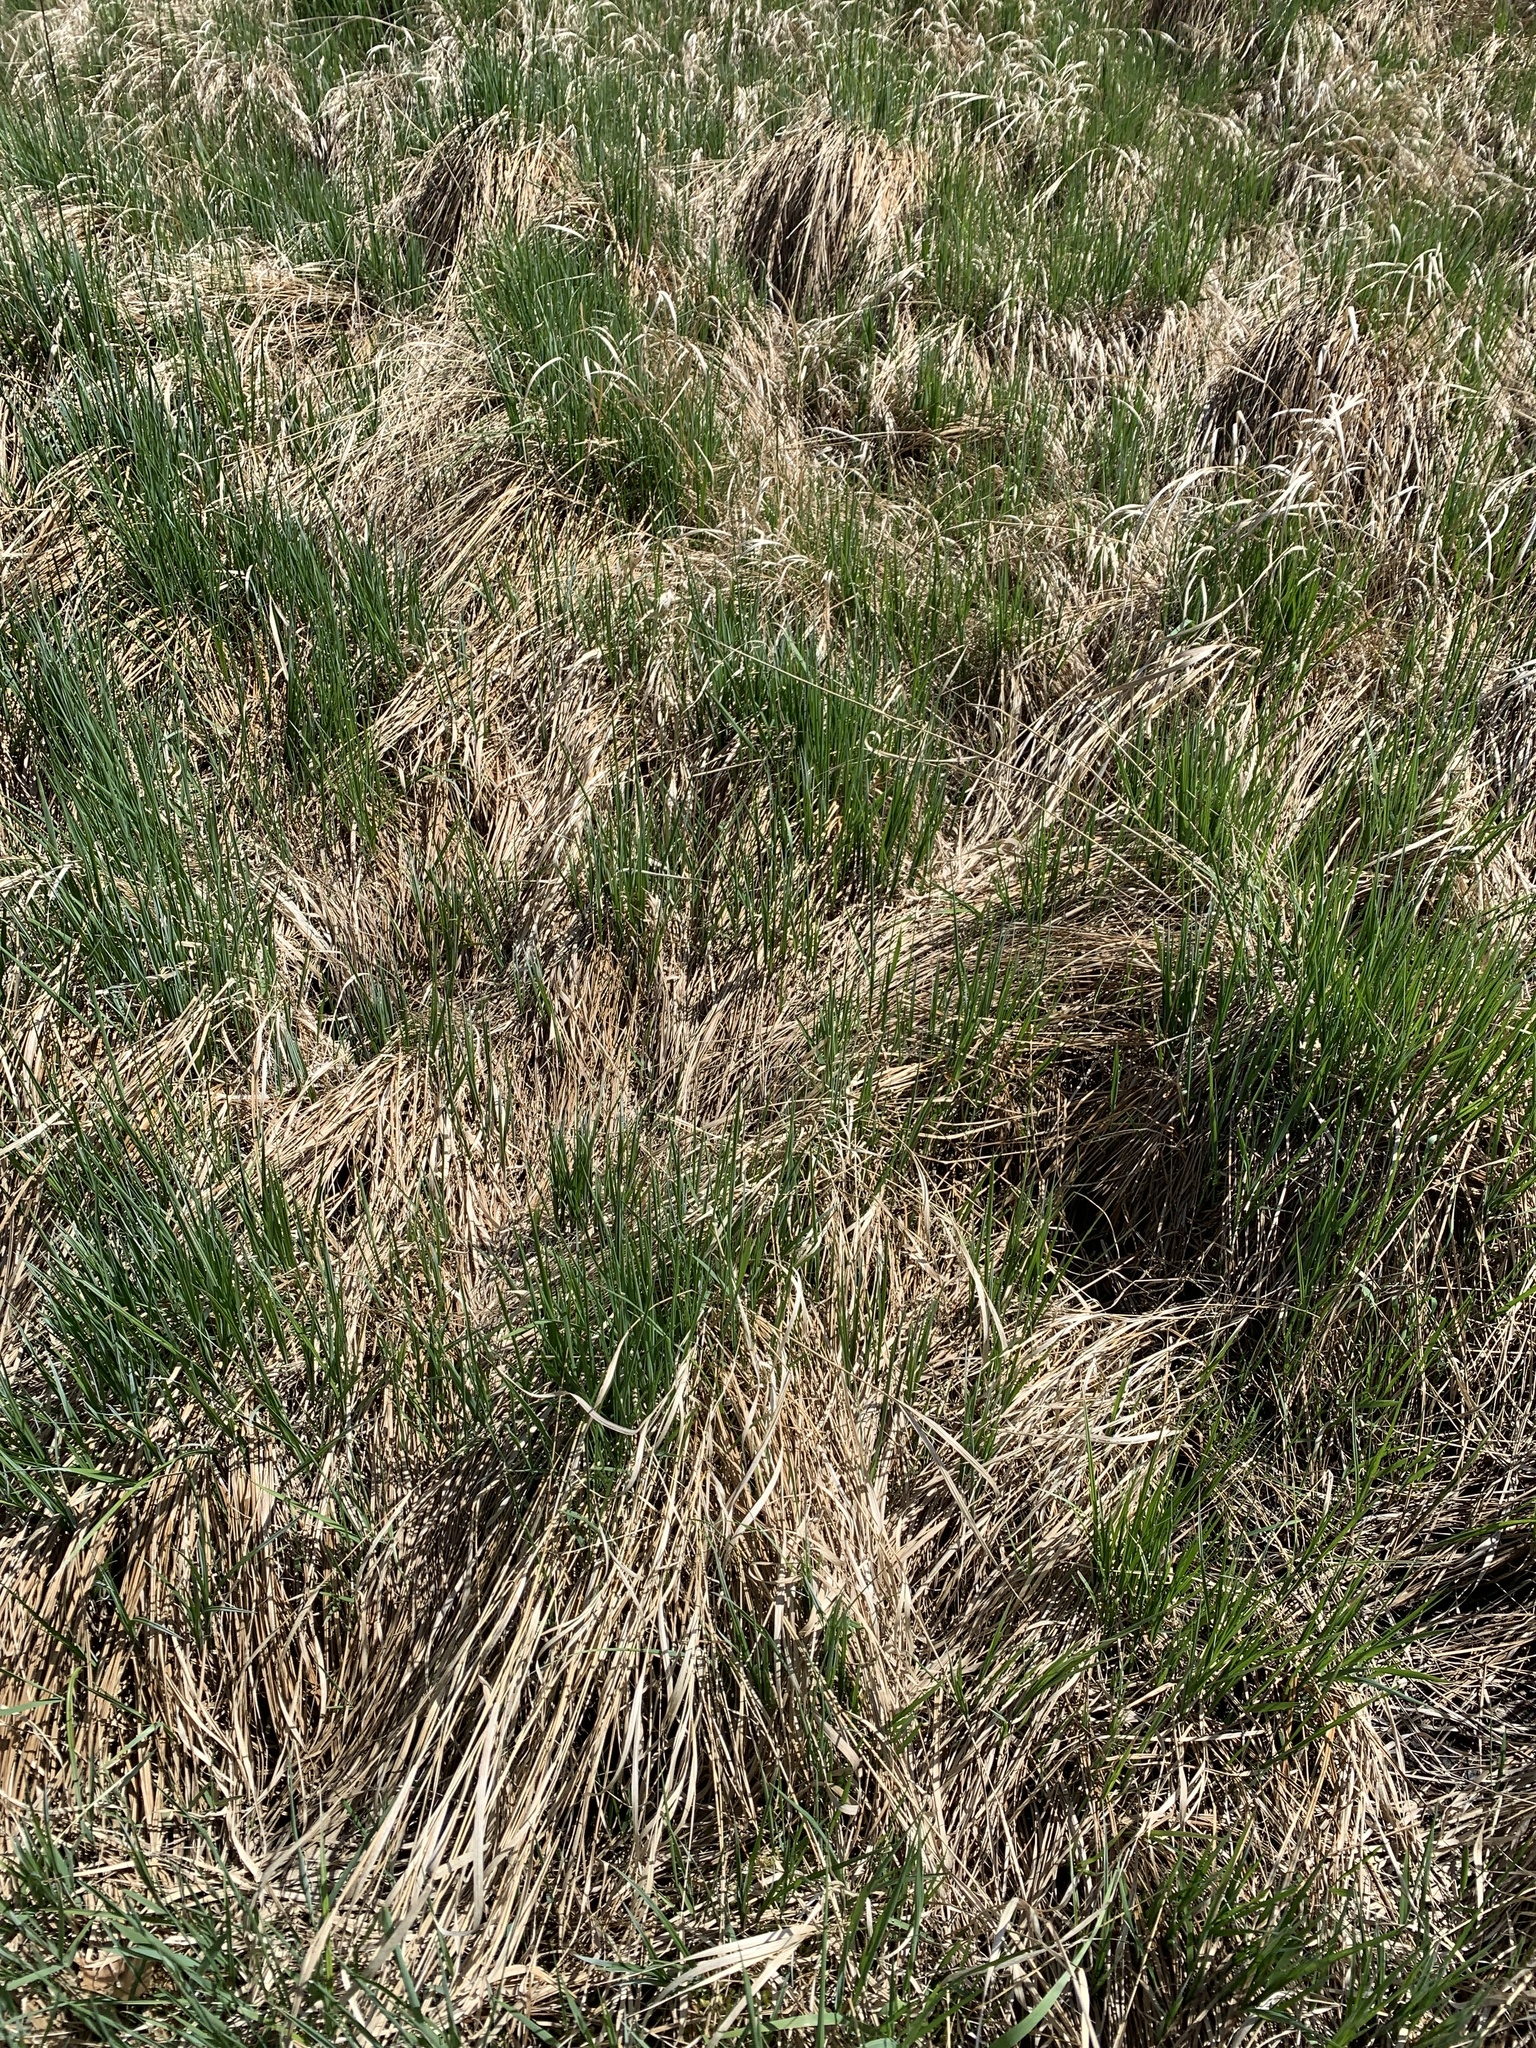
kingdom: Plantae
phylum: Tracheophyta
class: Liliopsida
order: Poales
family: Cyperaceae
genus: Carex
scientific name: Carex stricta
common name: Hummock sedge
